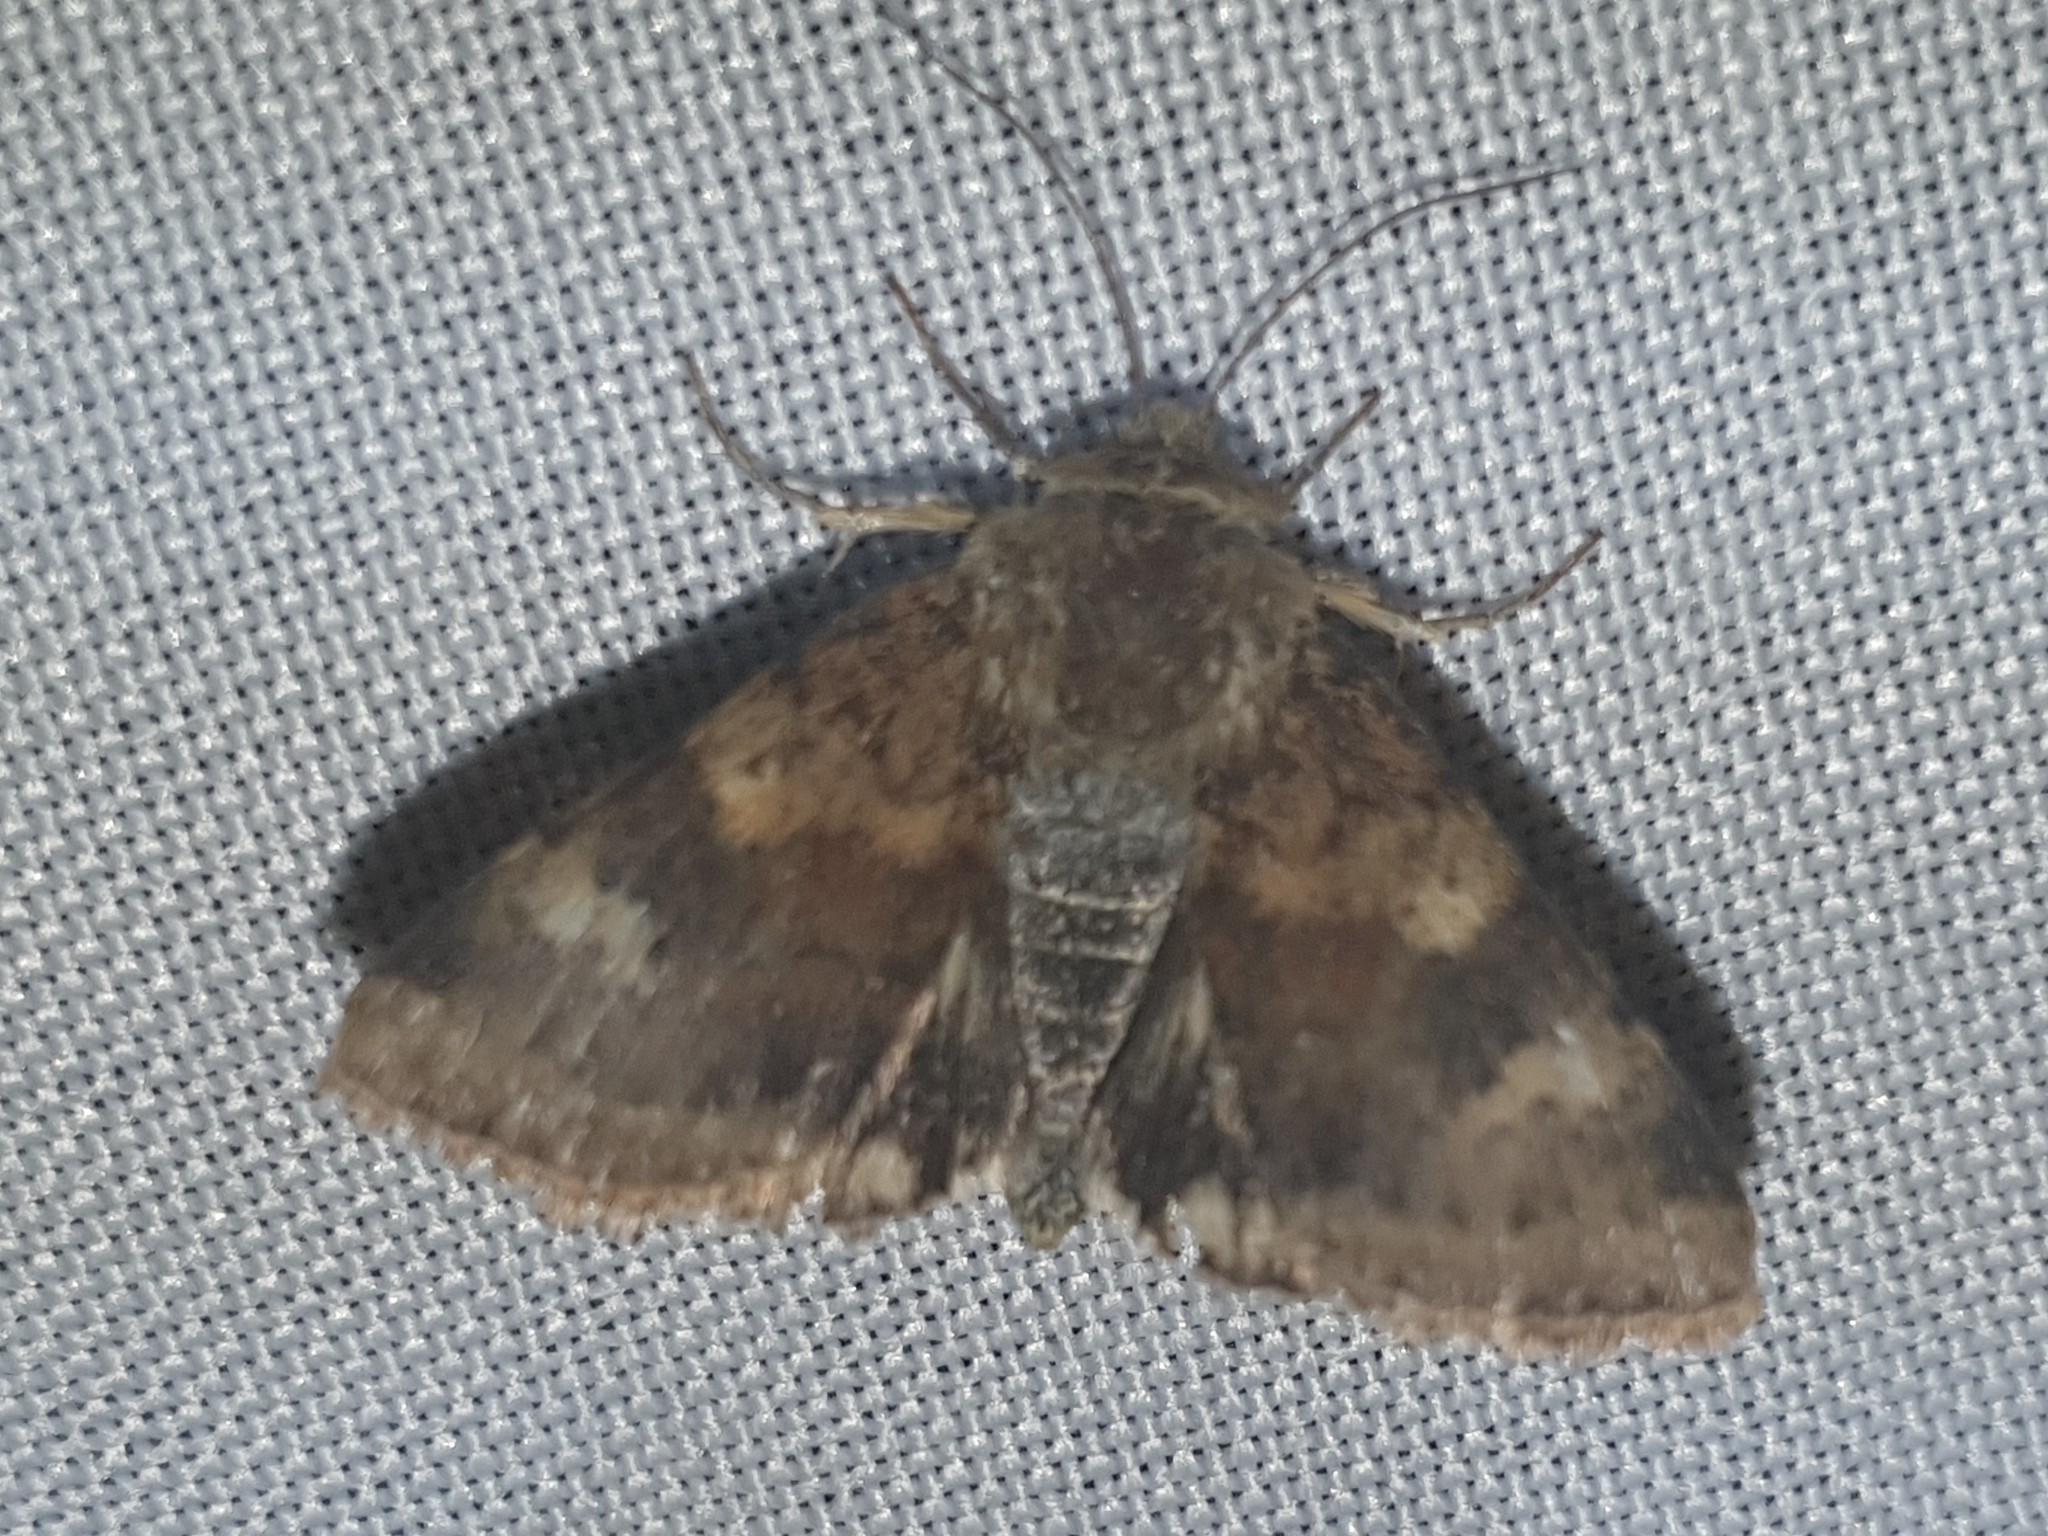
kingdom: Animalia
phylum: Arthropoda
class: Insecta
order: Lepidoptera
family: Noctuidae
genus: Heliothis
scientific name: Heliothis viriplaca
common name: Marbled clover
